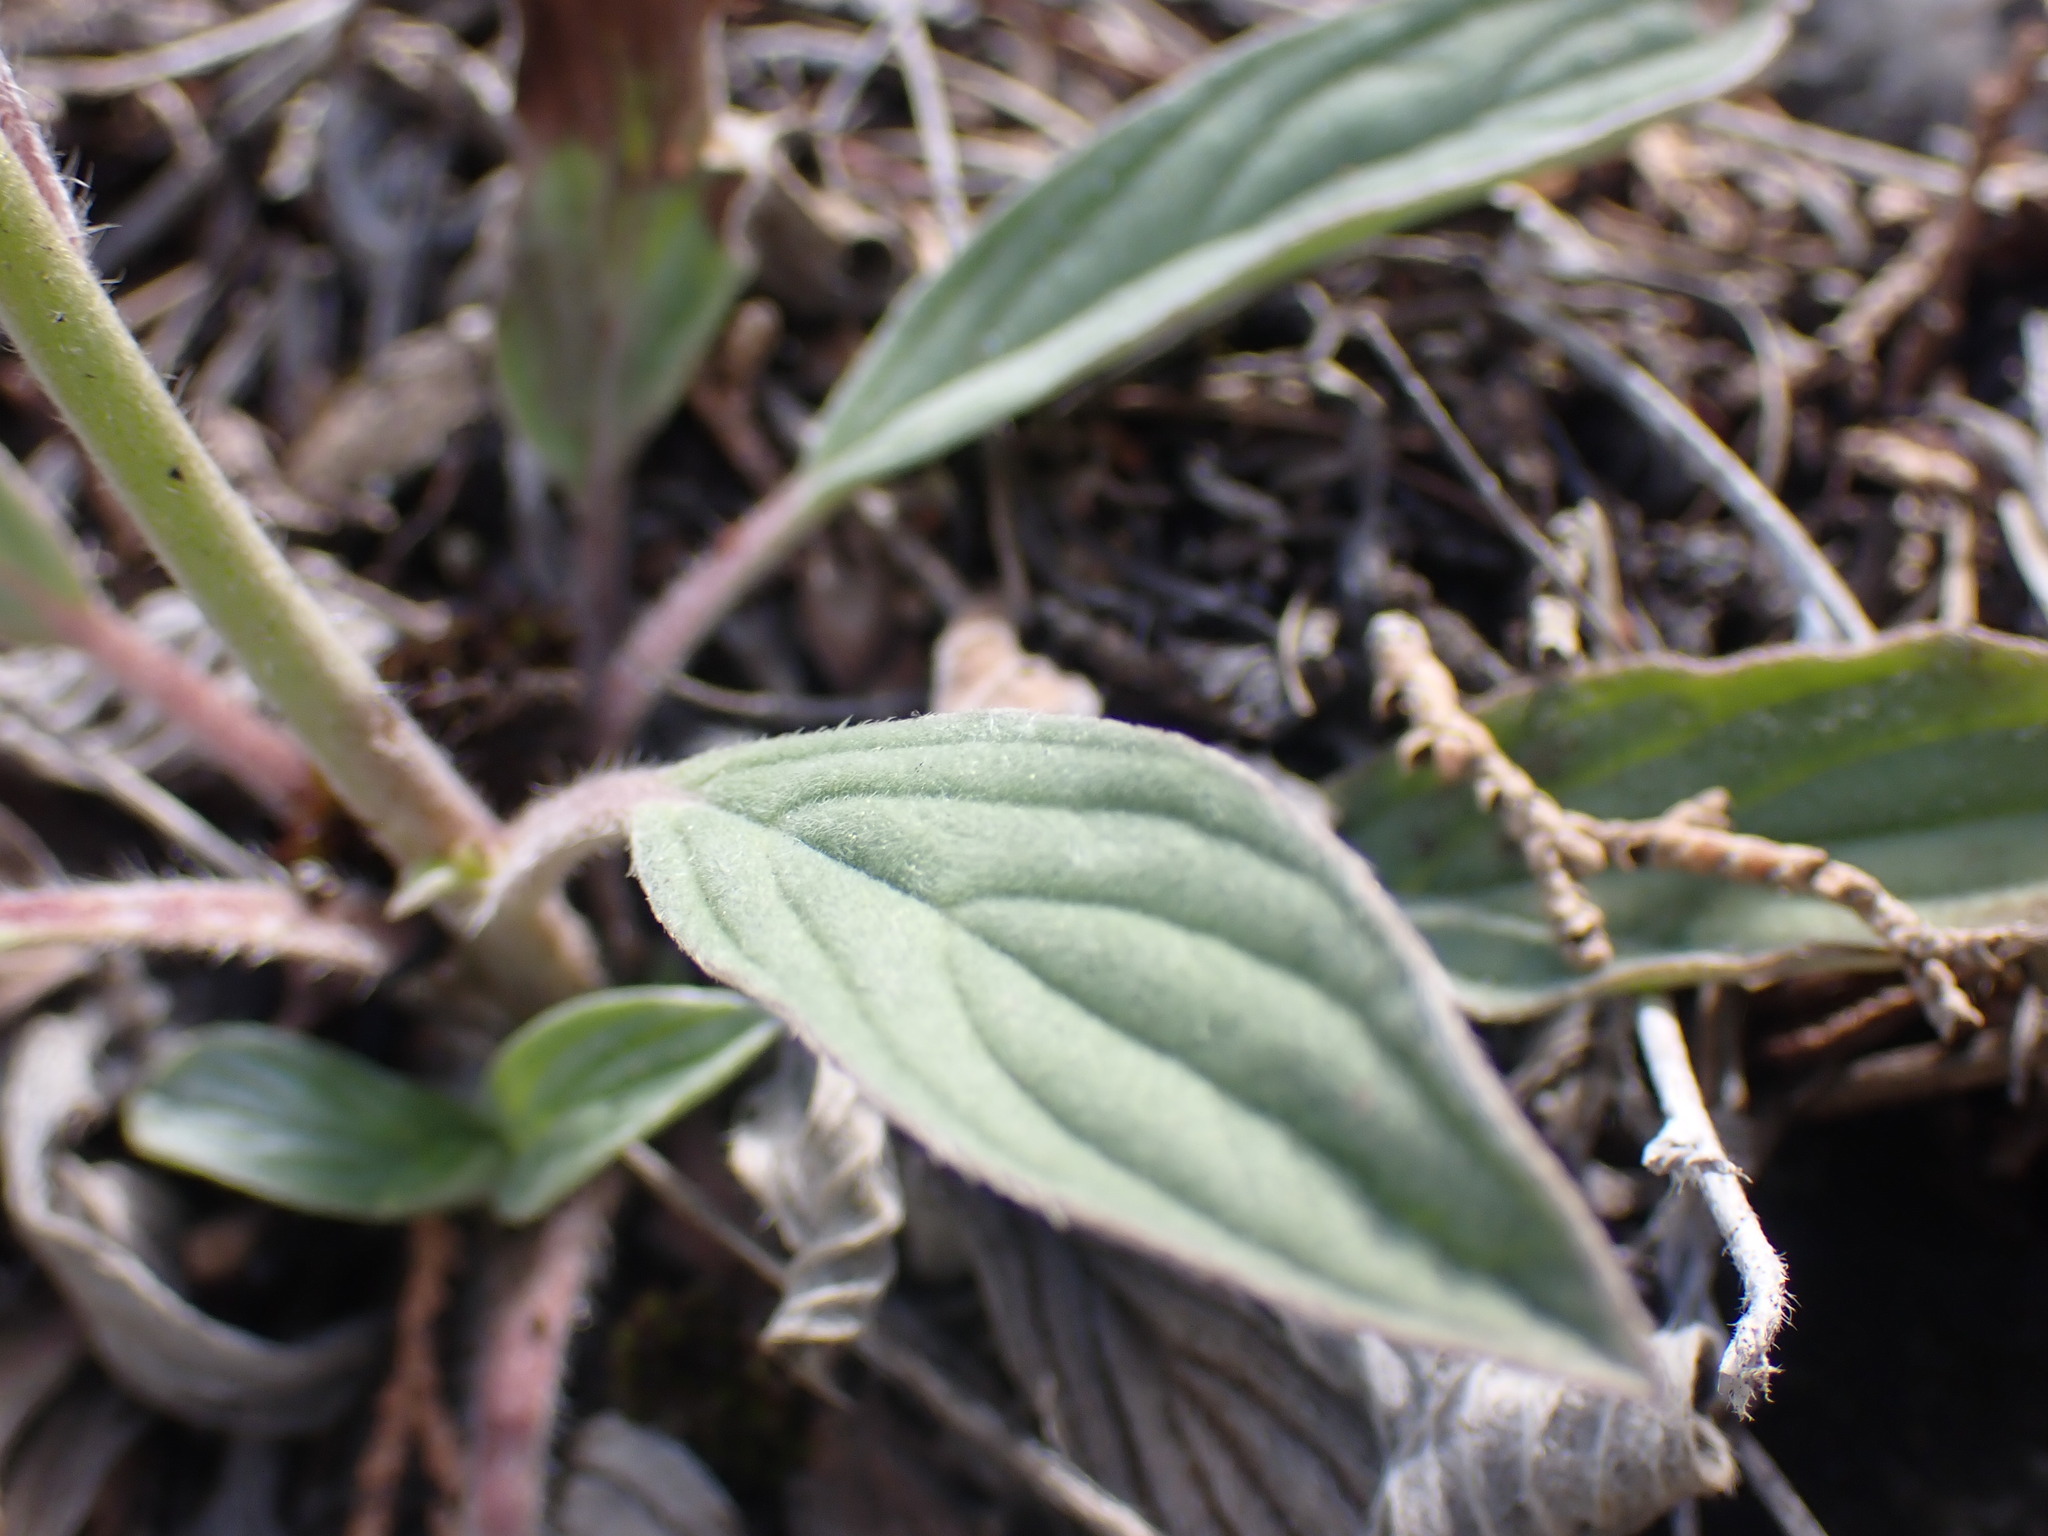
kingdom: Plantae
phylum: Tracheophyta
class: Magnoliopsida
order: Boraginales
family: Hydrophyllaceae
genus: Phacelia
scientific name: Phacelia hastata
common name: Silver-leaved phacelia
